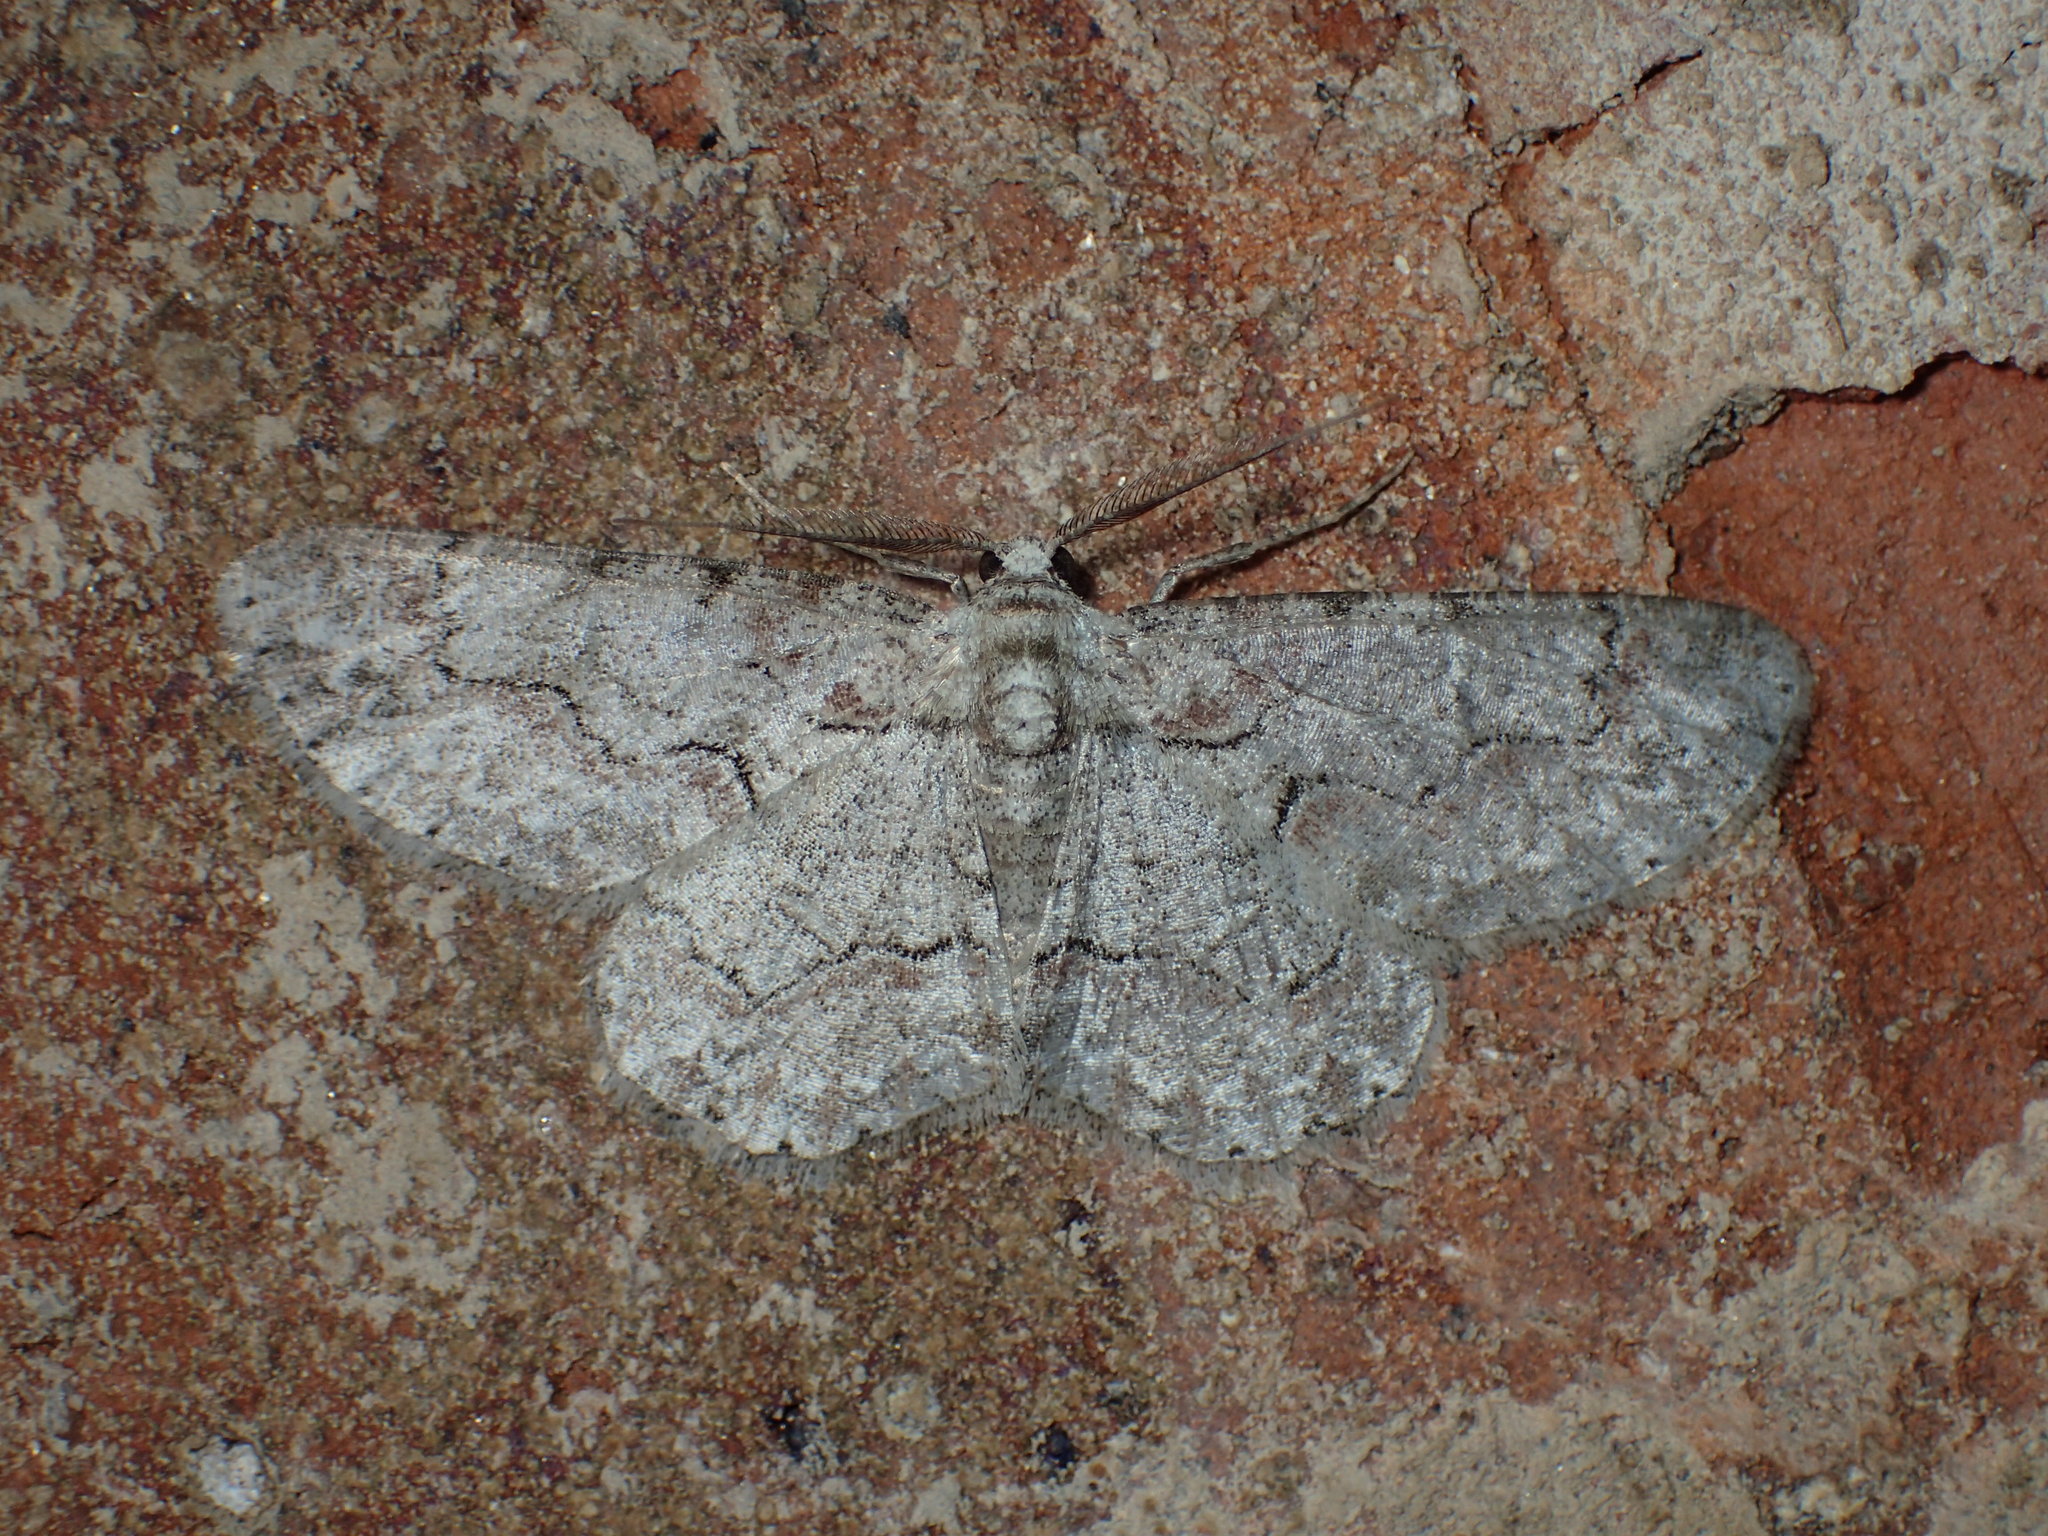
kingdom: Animalia
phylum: Arthropoda
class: Insecta
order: Lepidoptera
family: Geometridae
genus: Iridopsis
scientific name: Iridopsis defectaria
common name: Brown-shaded gray
